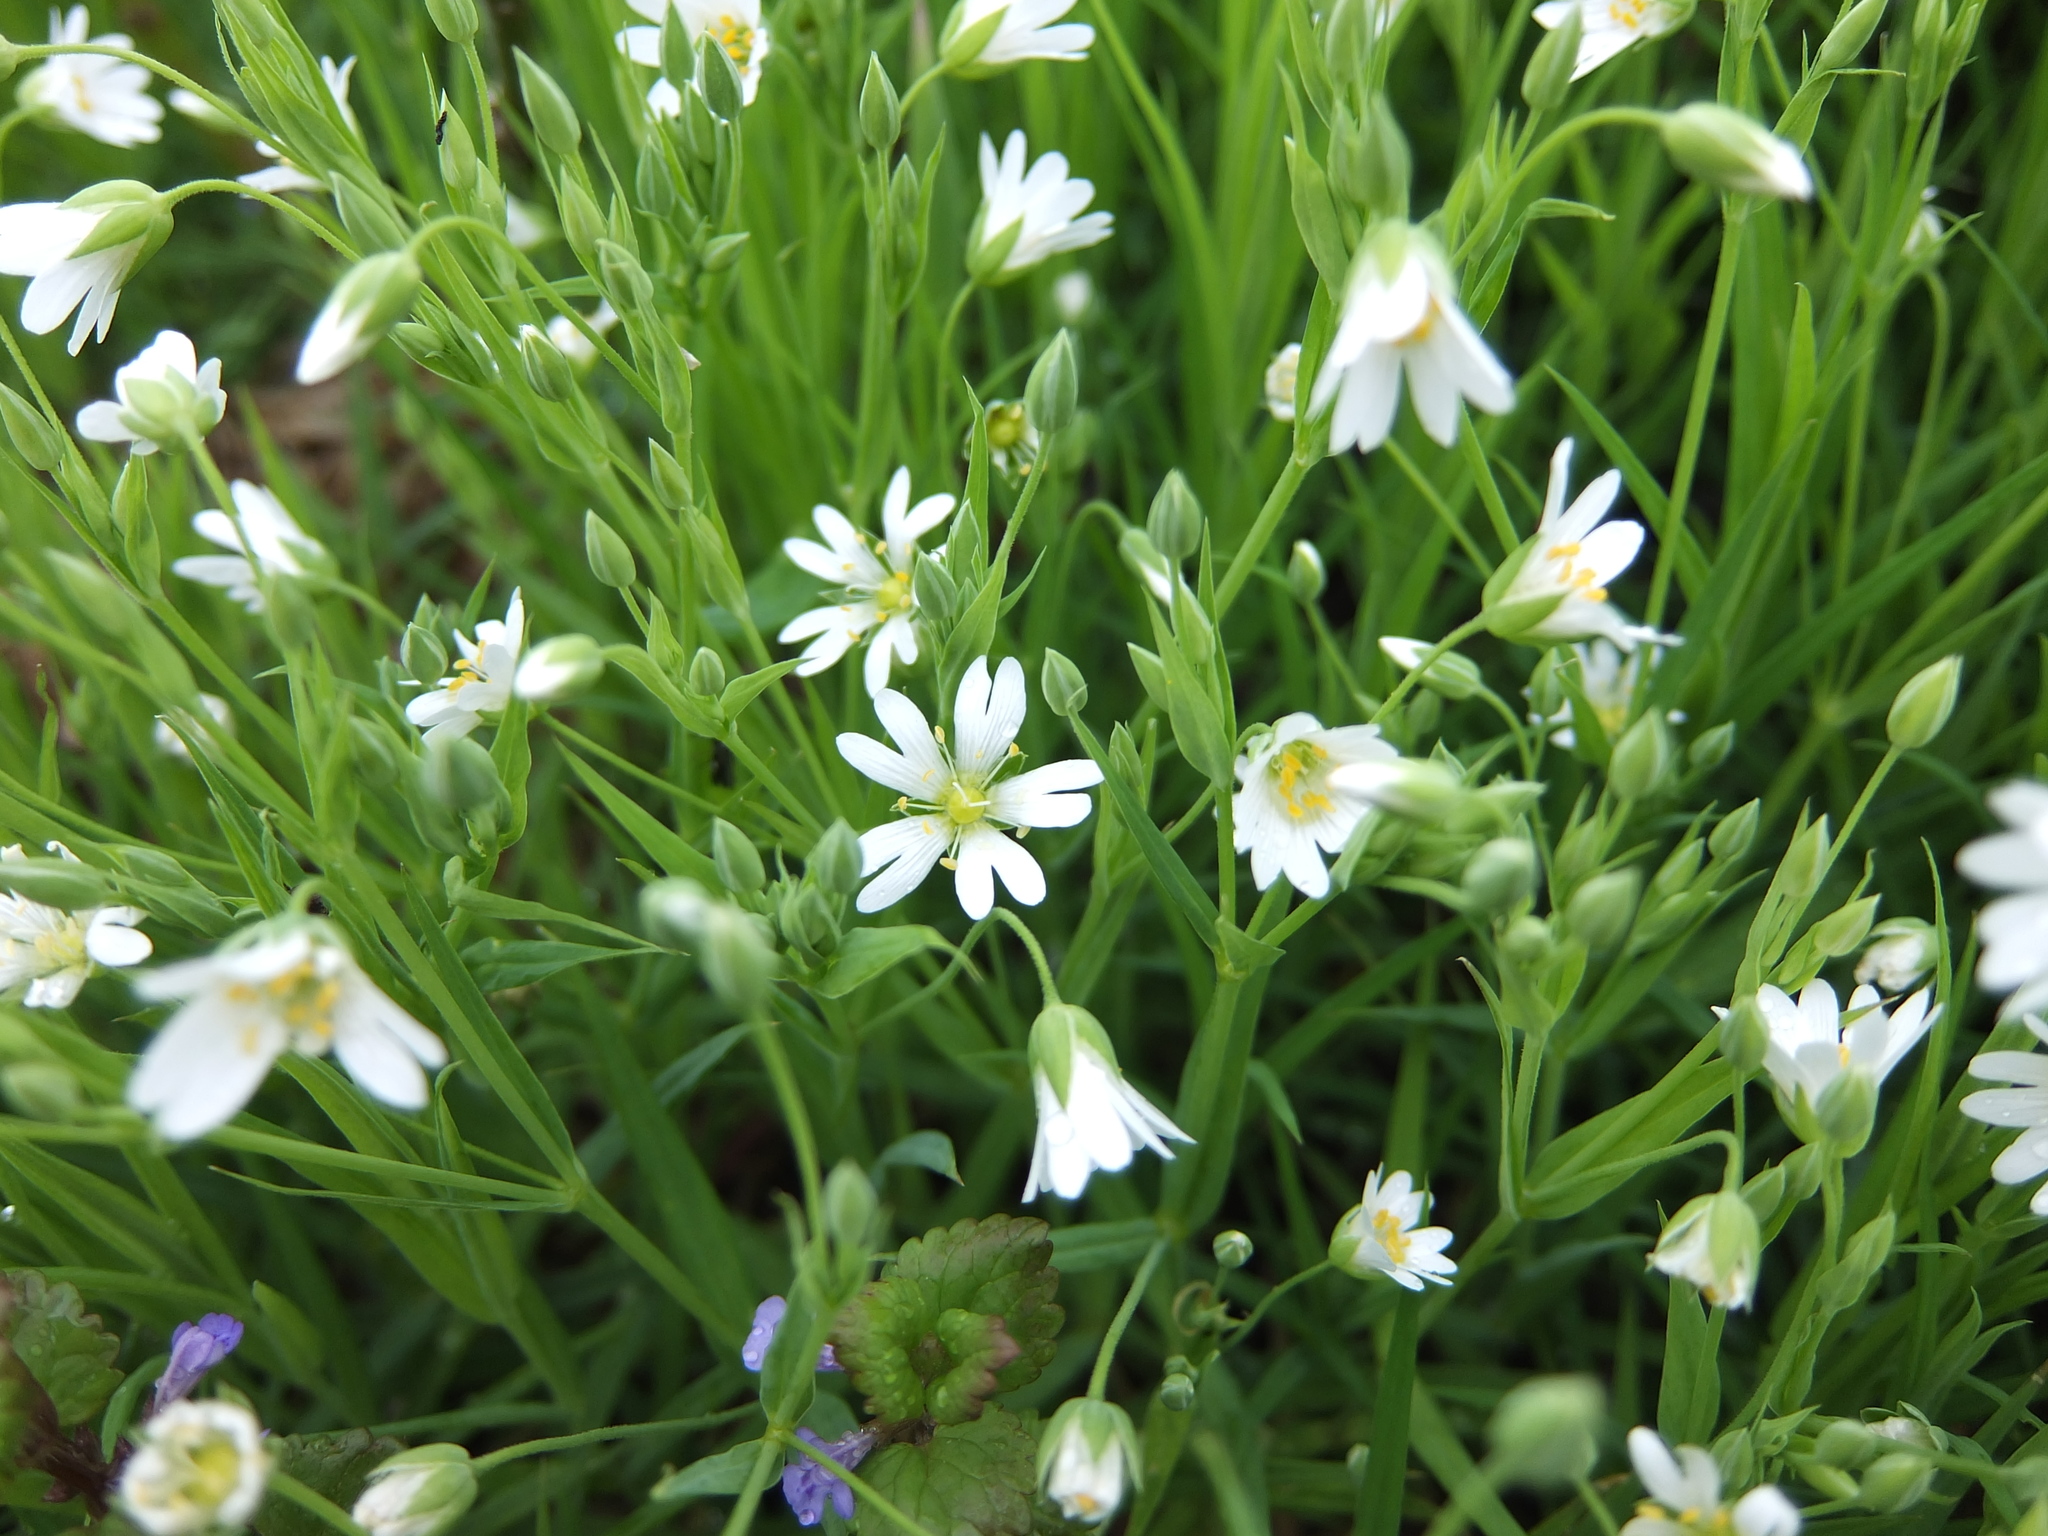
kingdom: Plantae
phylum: Tracheophyta
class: Magnoliopsida
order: Caryophyllales
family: Caryophyllaceae
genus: Rabelera
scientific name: Rabelera holostea
